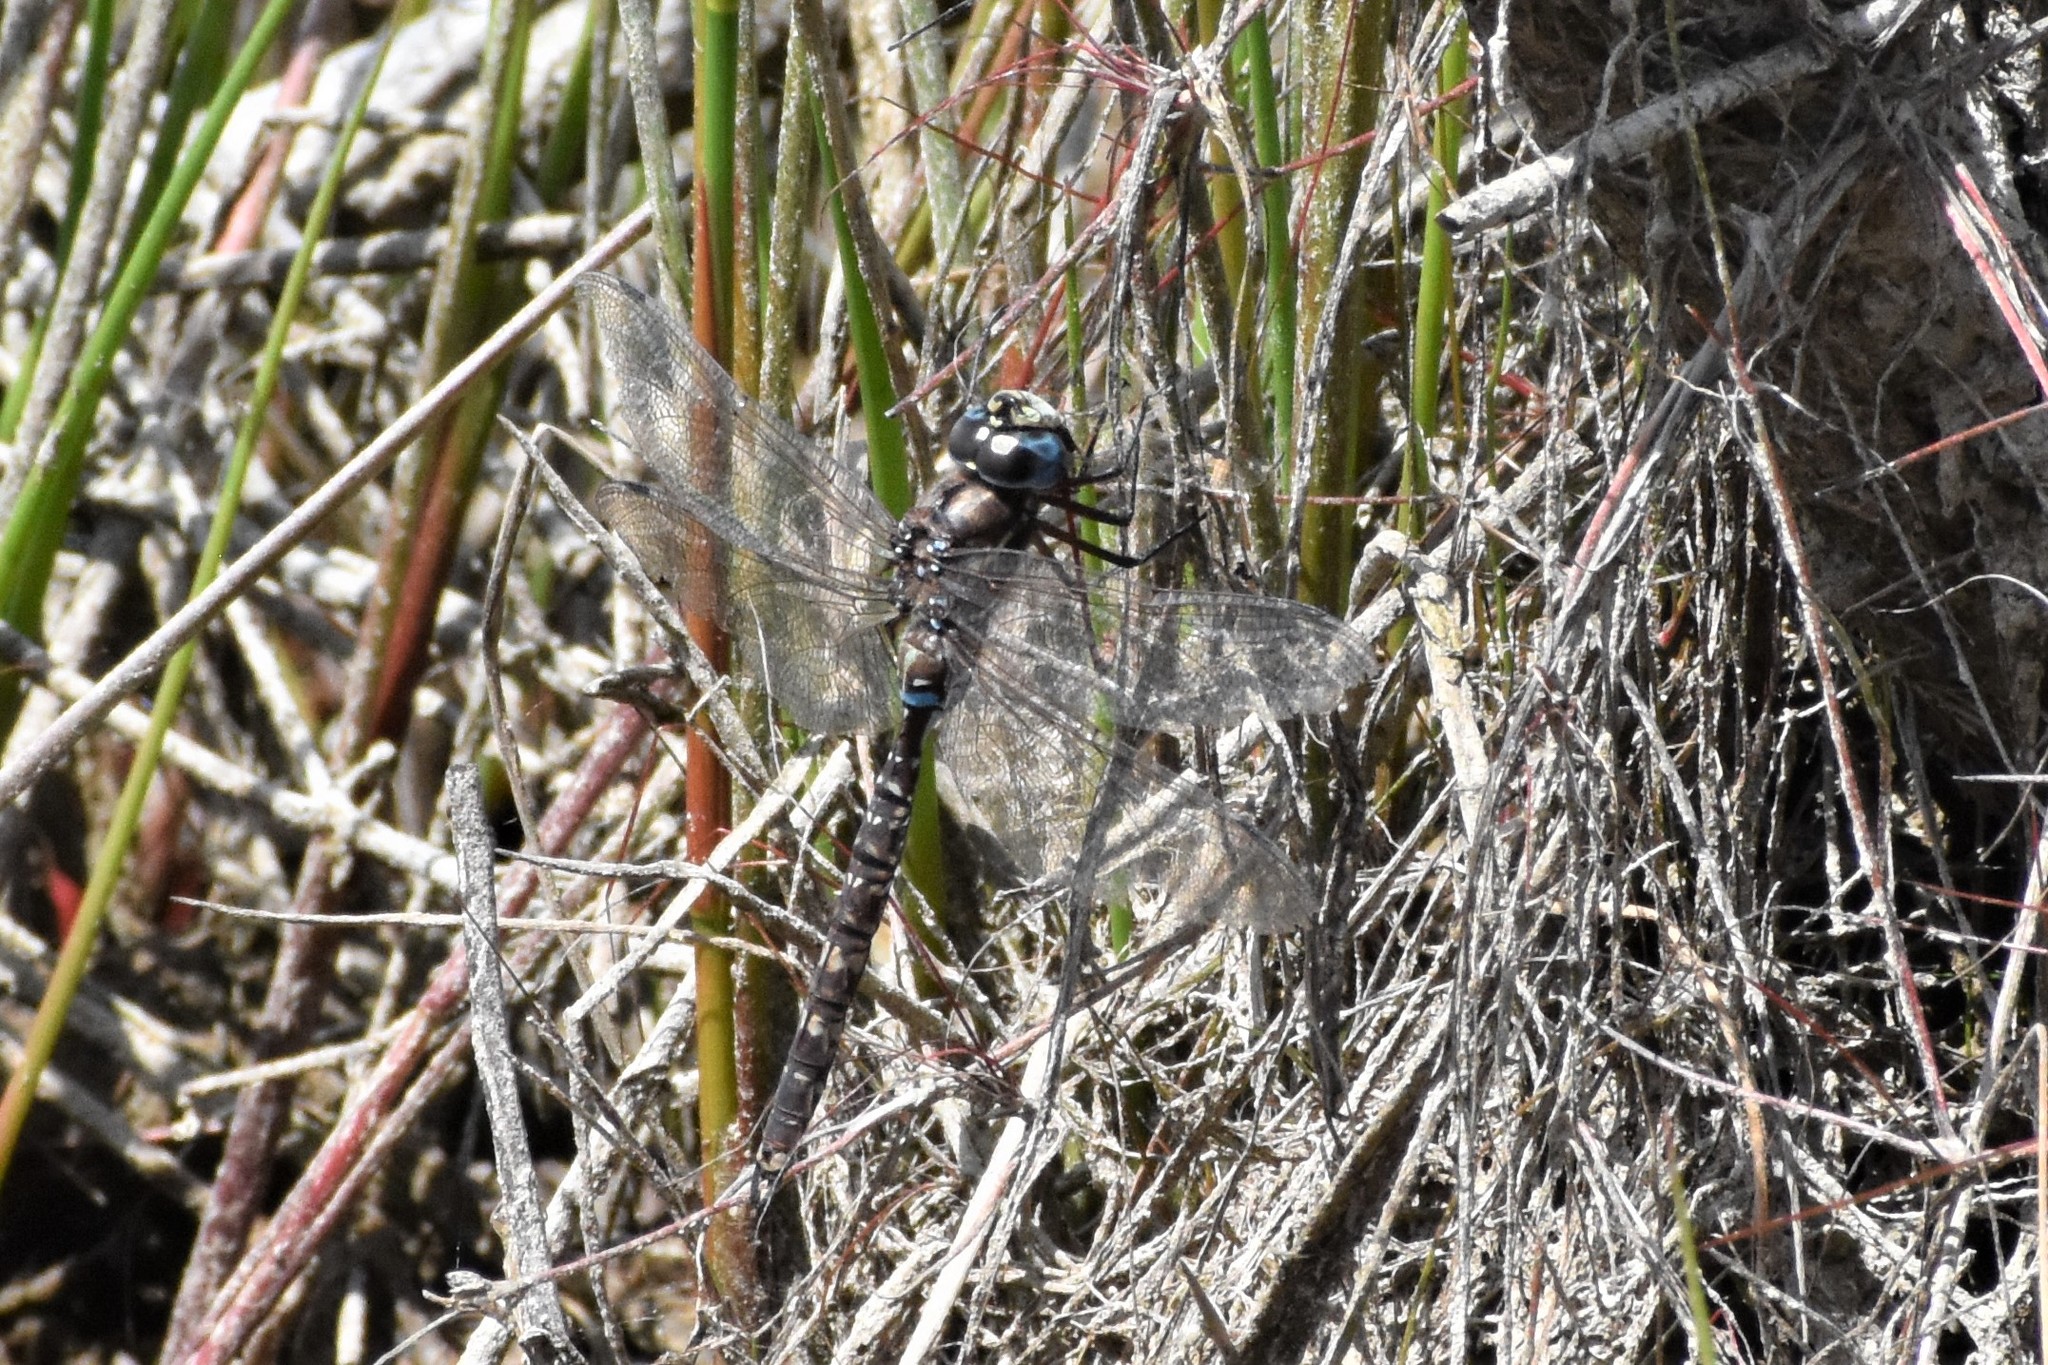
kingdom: Animalia
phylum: Arthropoda
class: Insecta
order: Odonata
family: Aeshnidae
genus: Aeshna
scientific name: Aeshna brevistyla
